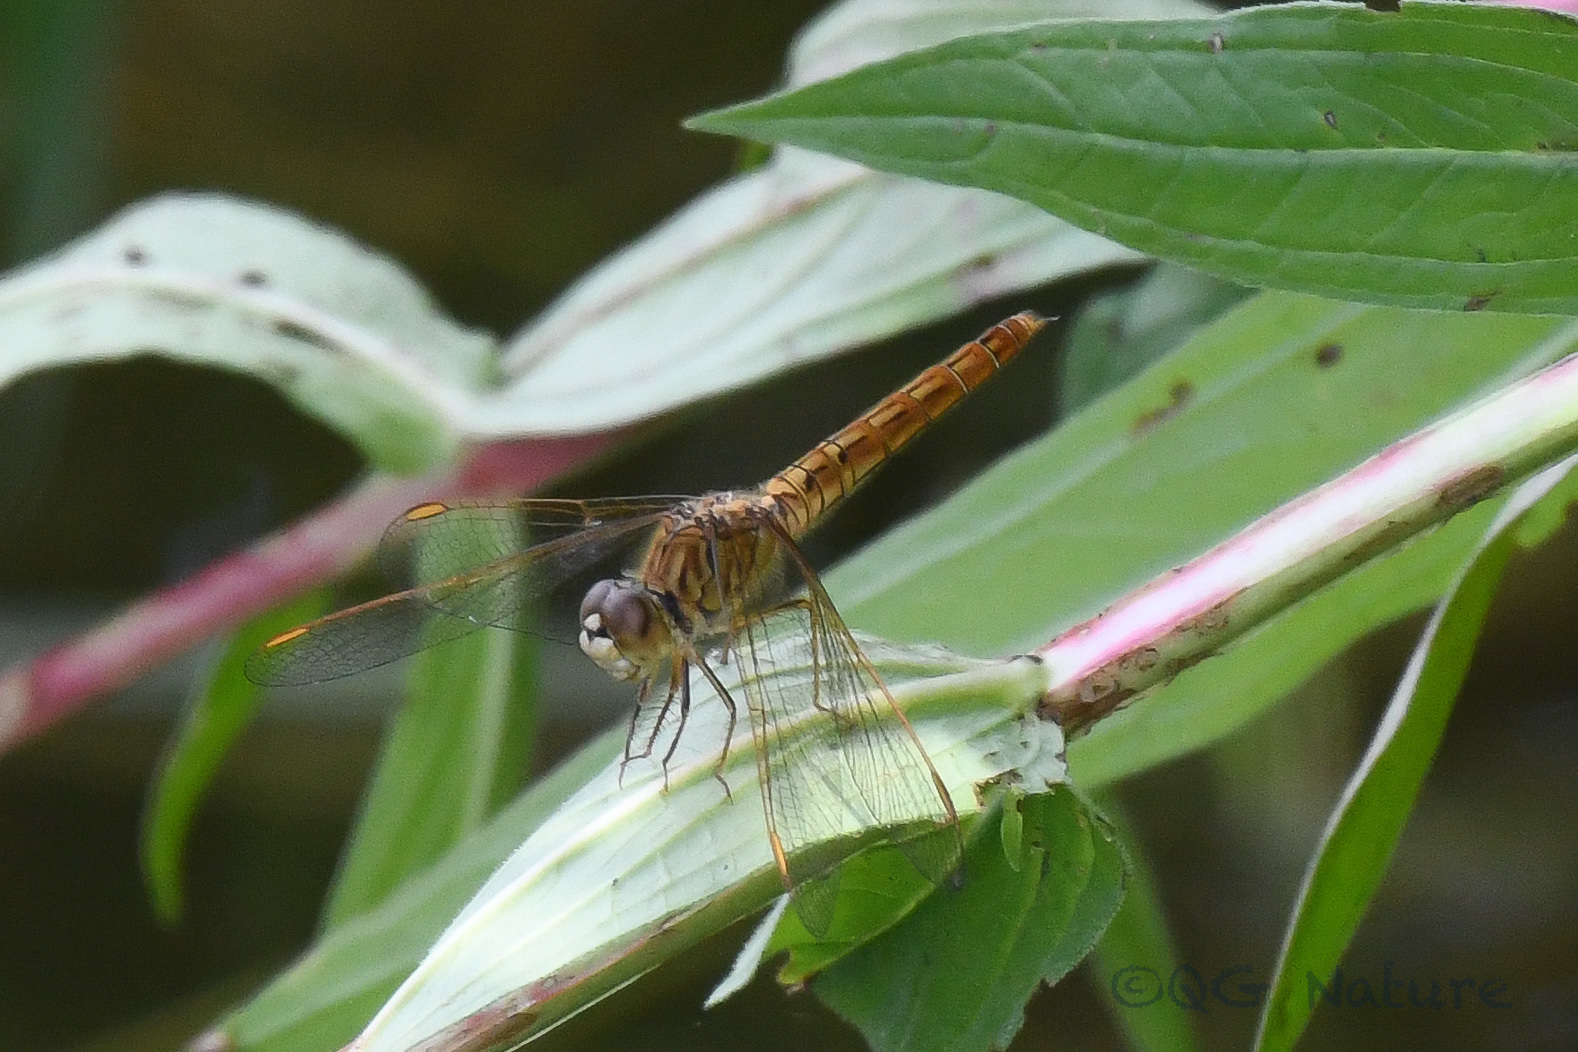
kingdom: Animalia
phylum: Arthropoda
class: Insecta
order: Odonata
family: Libellulidae
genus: Brachythemis
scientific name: Brachythemis contaminata
